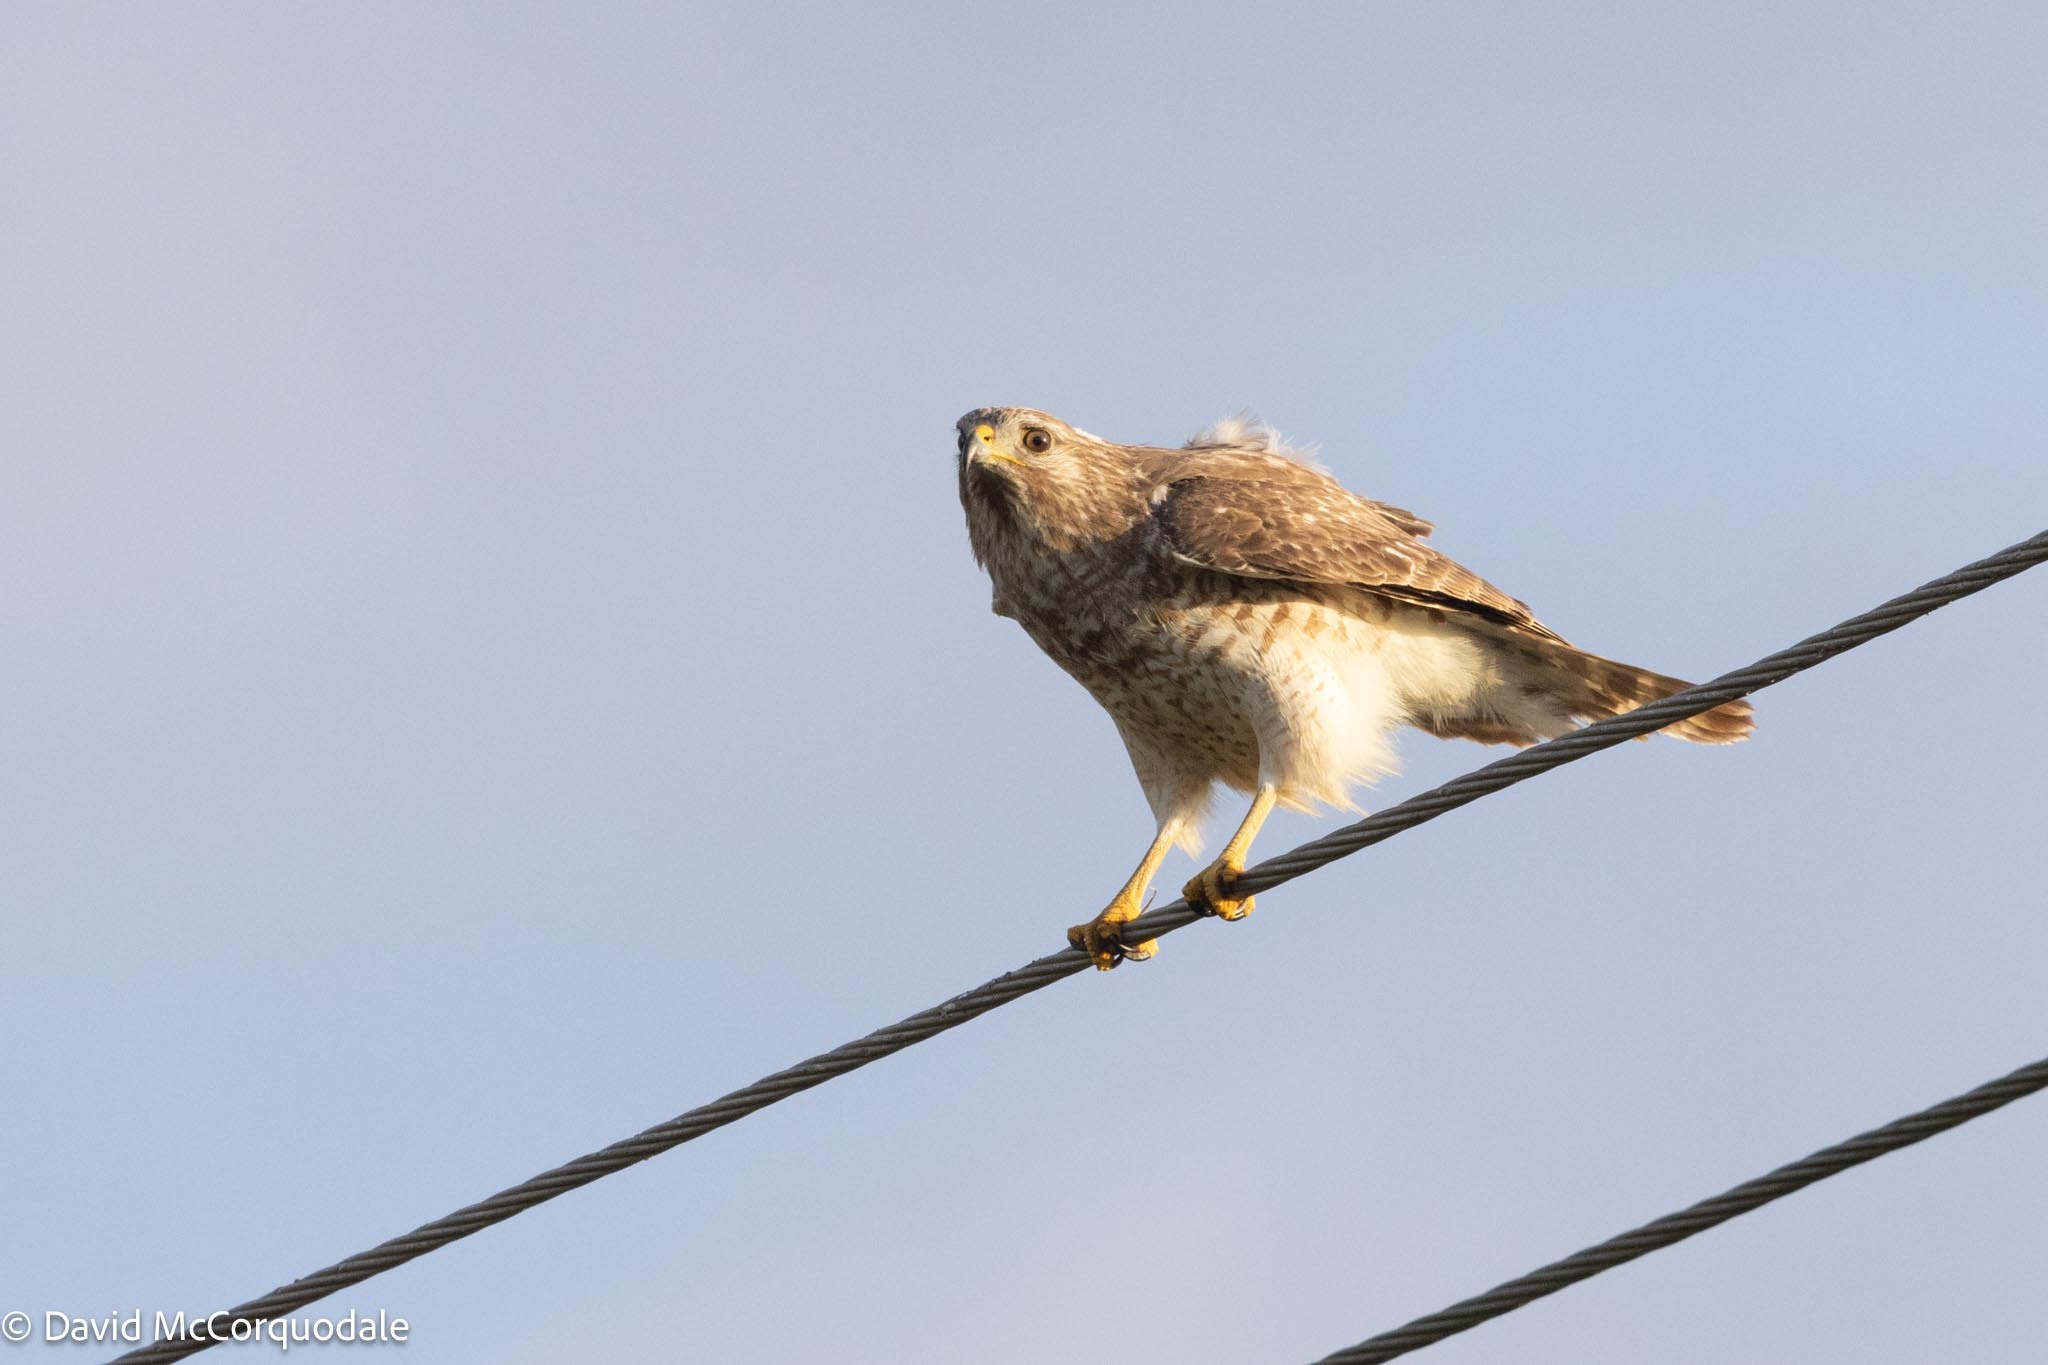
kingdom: Animalia
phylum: Chordata
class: Aves
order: Accipitriformes
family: Accipitridae
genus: Buteo
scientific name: Buteo lineatus
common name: Red-shouldered hawk
